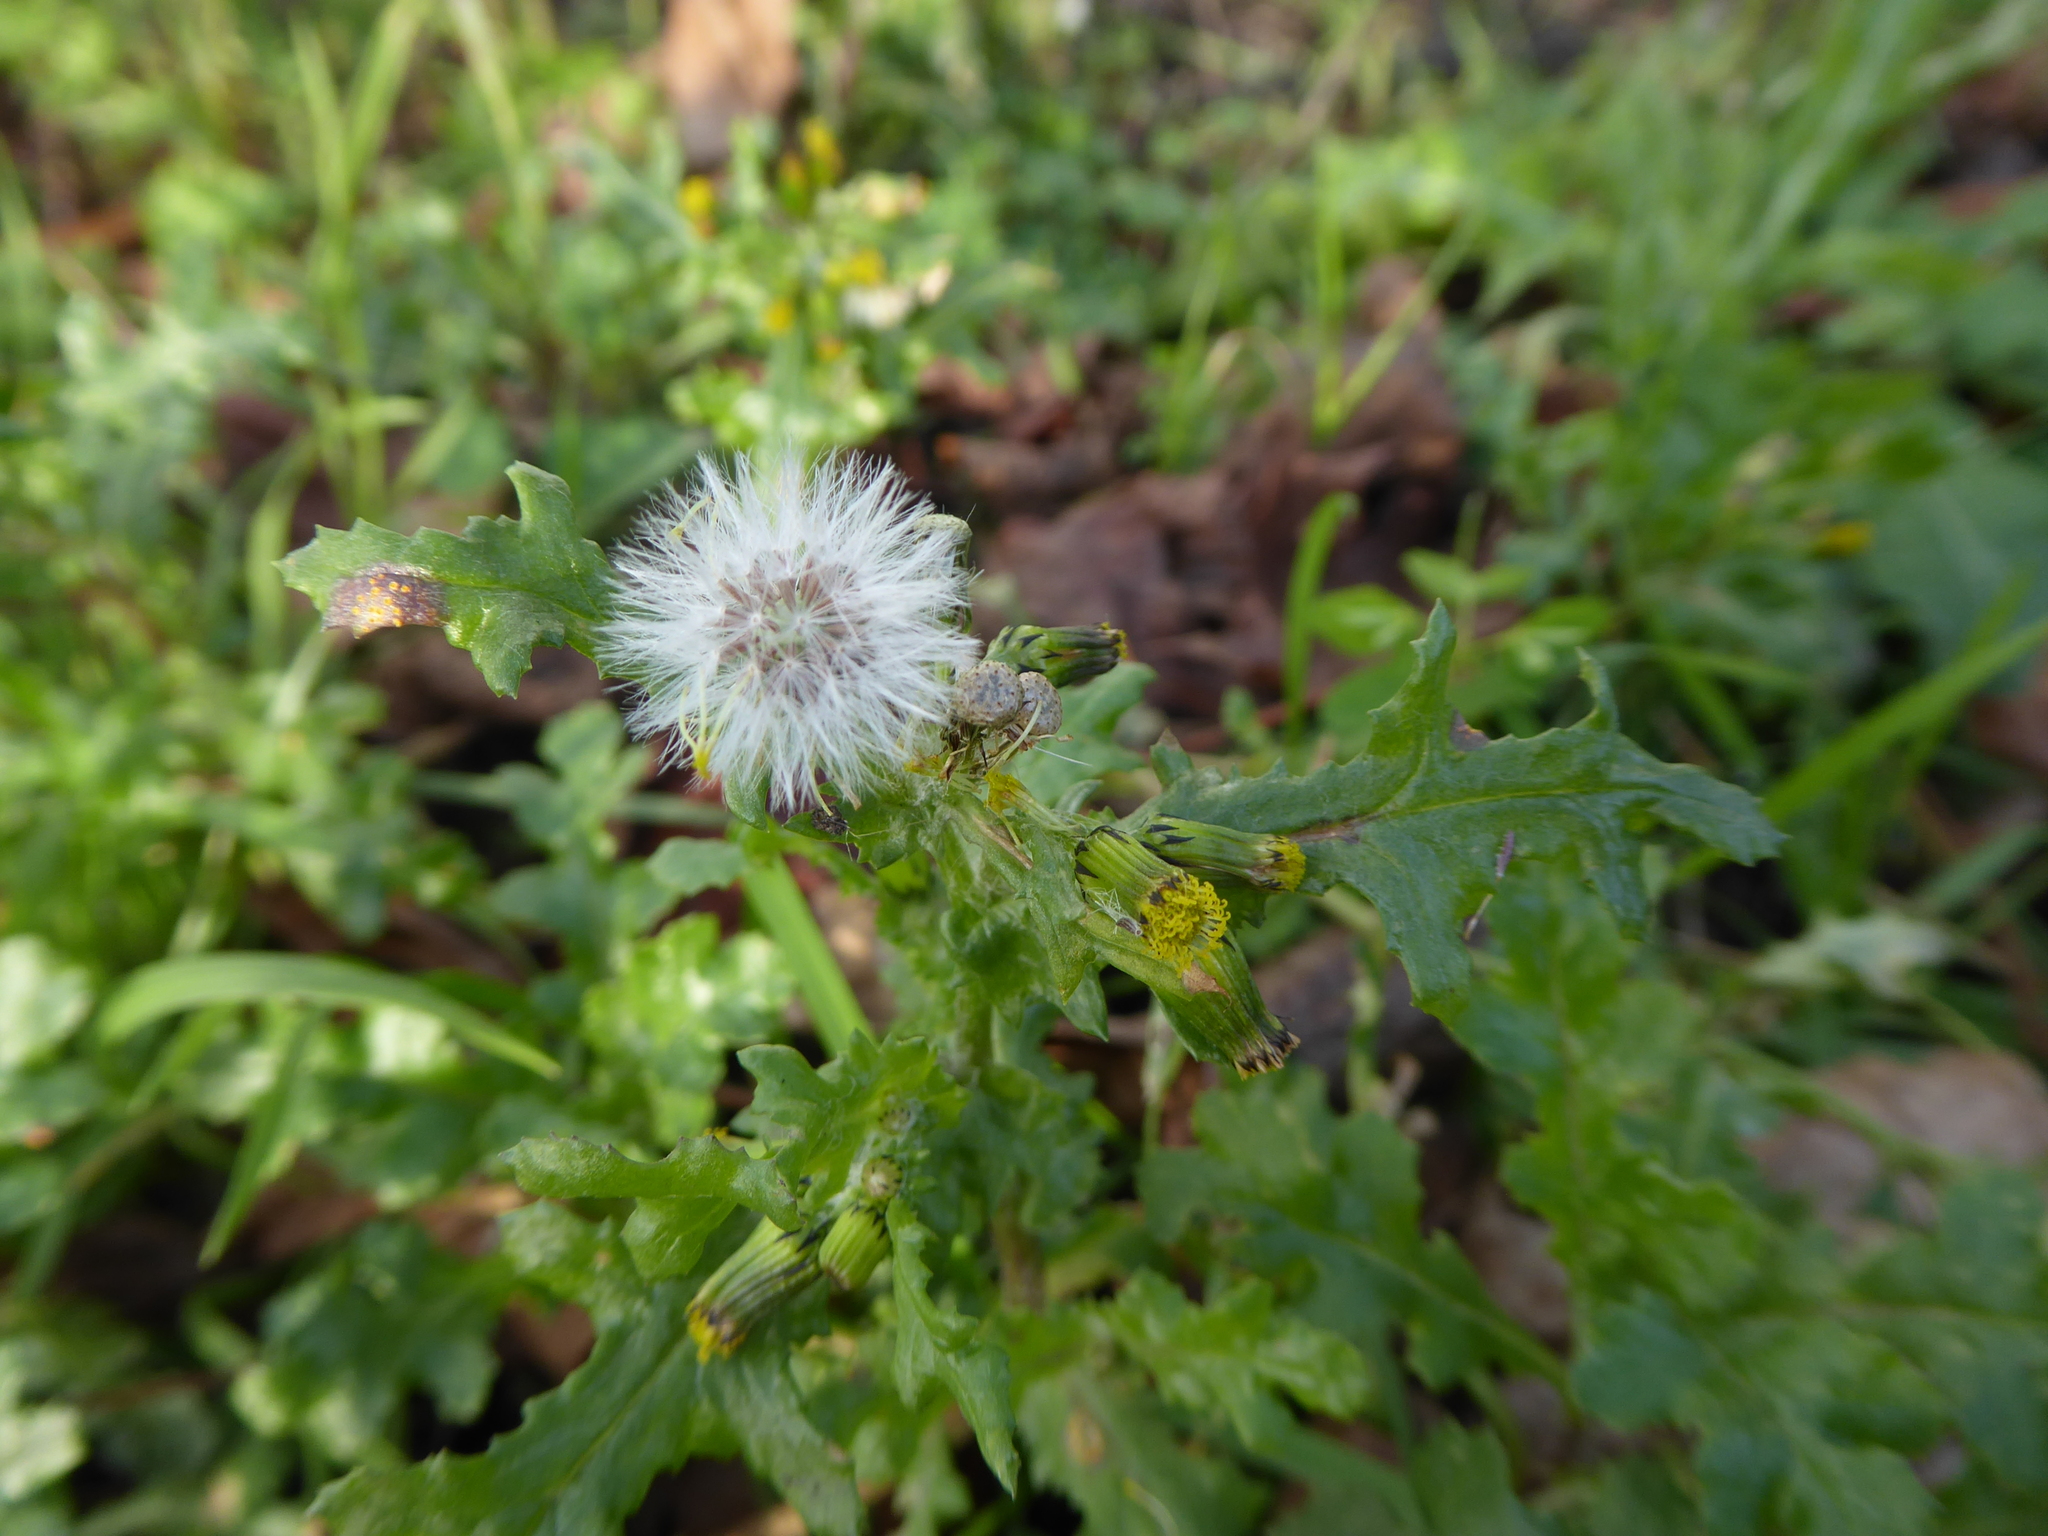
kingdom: Plantae
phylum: Tracheophyta
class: Magnoliopsida
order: Asterales
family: Asteraceae
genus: Senecio
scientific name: Senecio vulgaris
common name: Old-man-in-the-spring
